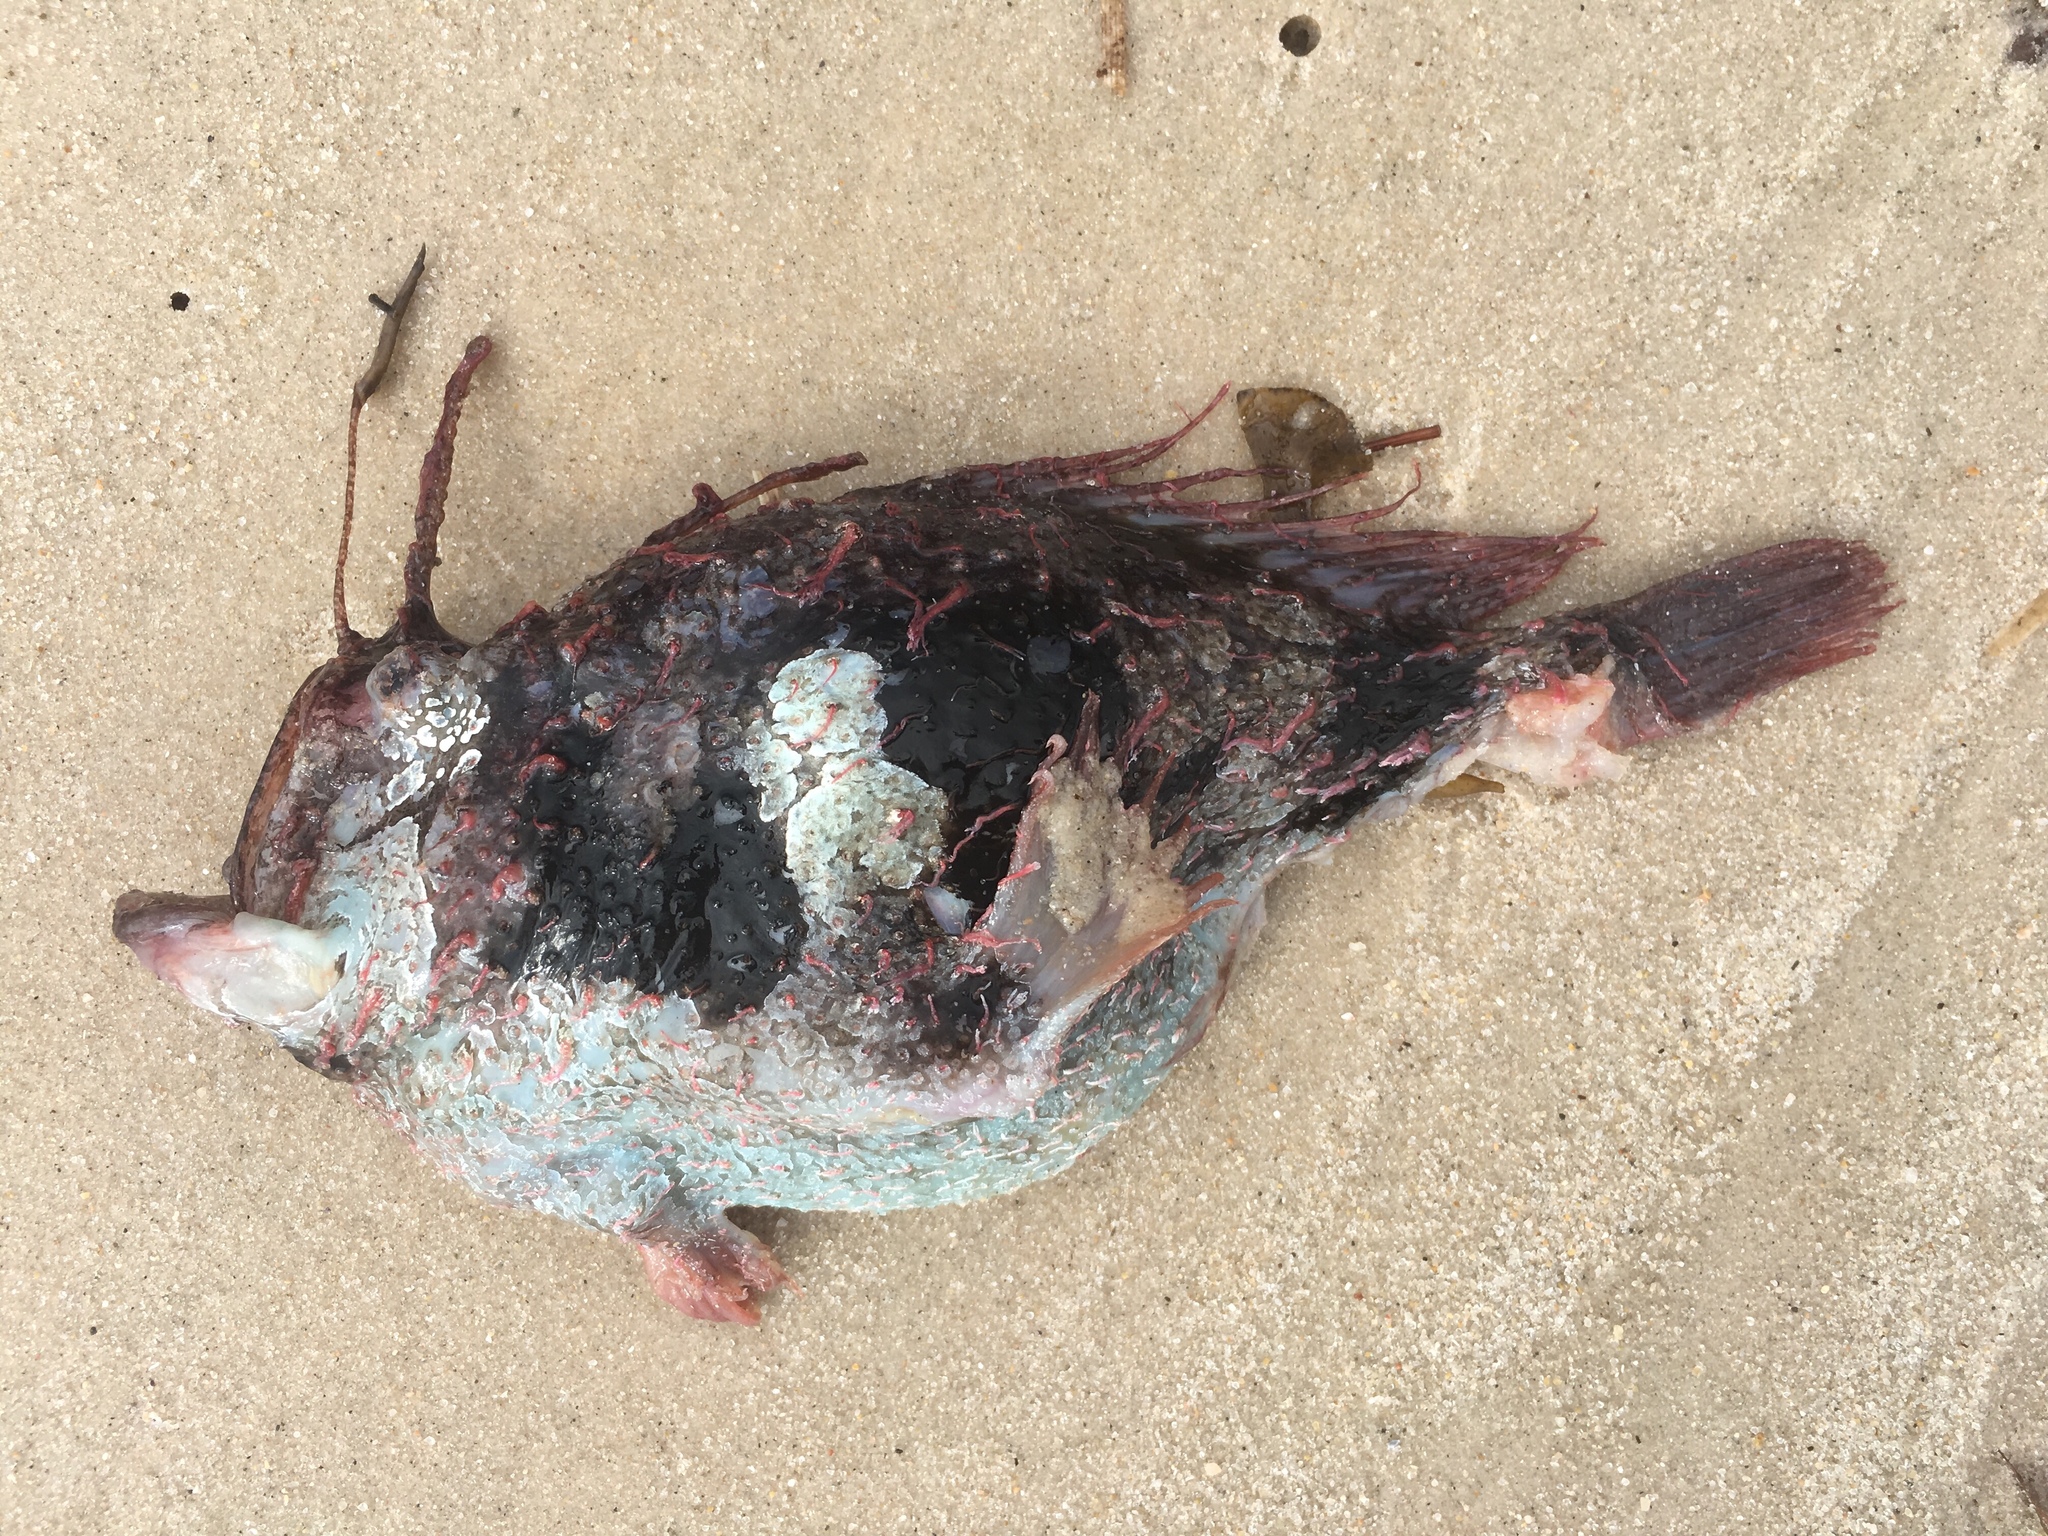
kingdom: Animalia
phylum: Chordata
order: Lophiiformes
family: Antennariidae
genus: Rhycherus
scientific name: Rhycherus filamentosus
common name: Tasselled anglerfish
